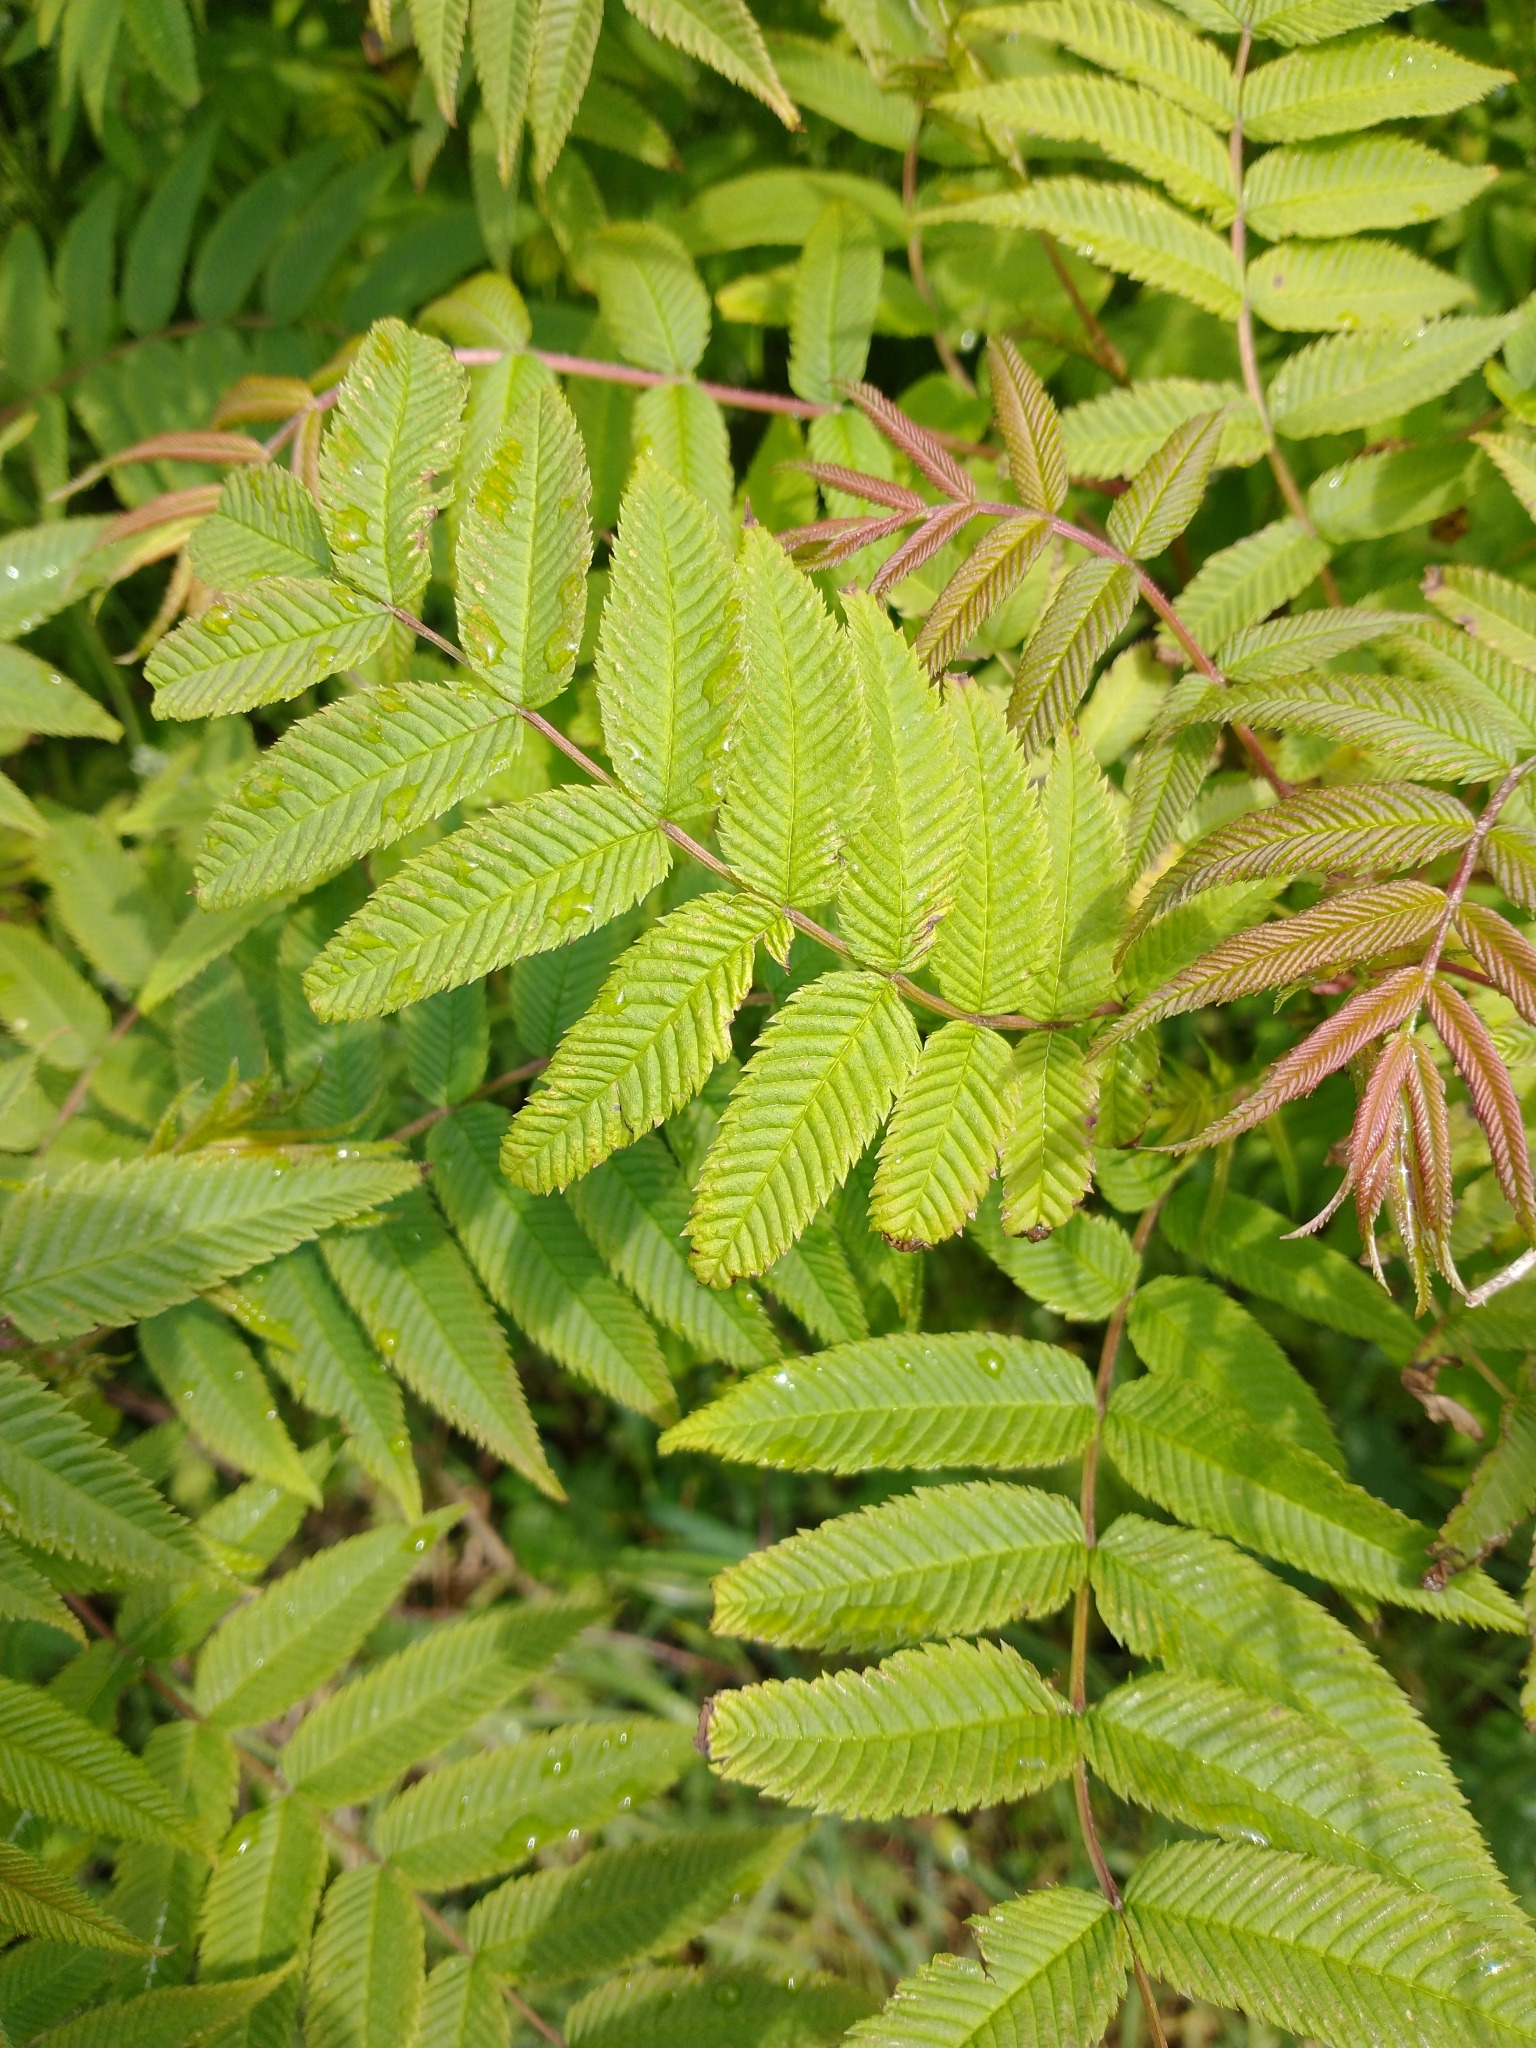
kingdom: Plantae
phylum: Tracheophyta
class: Magnoliopsida
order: Rosales
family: Rosaceae
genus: Sorbaria
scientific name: Sorbaria sorbifolia
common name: False spiraea
